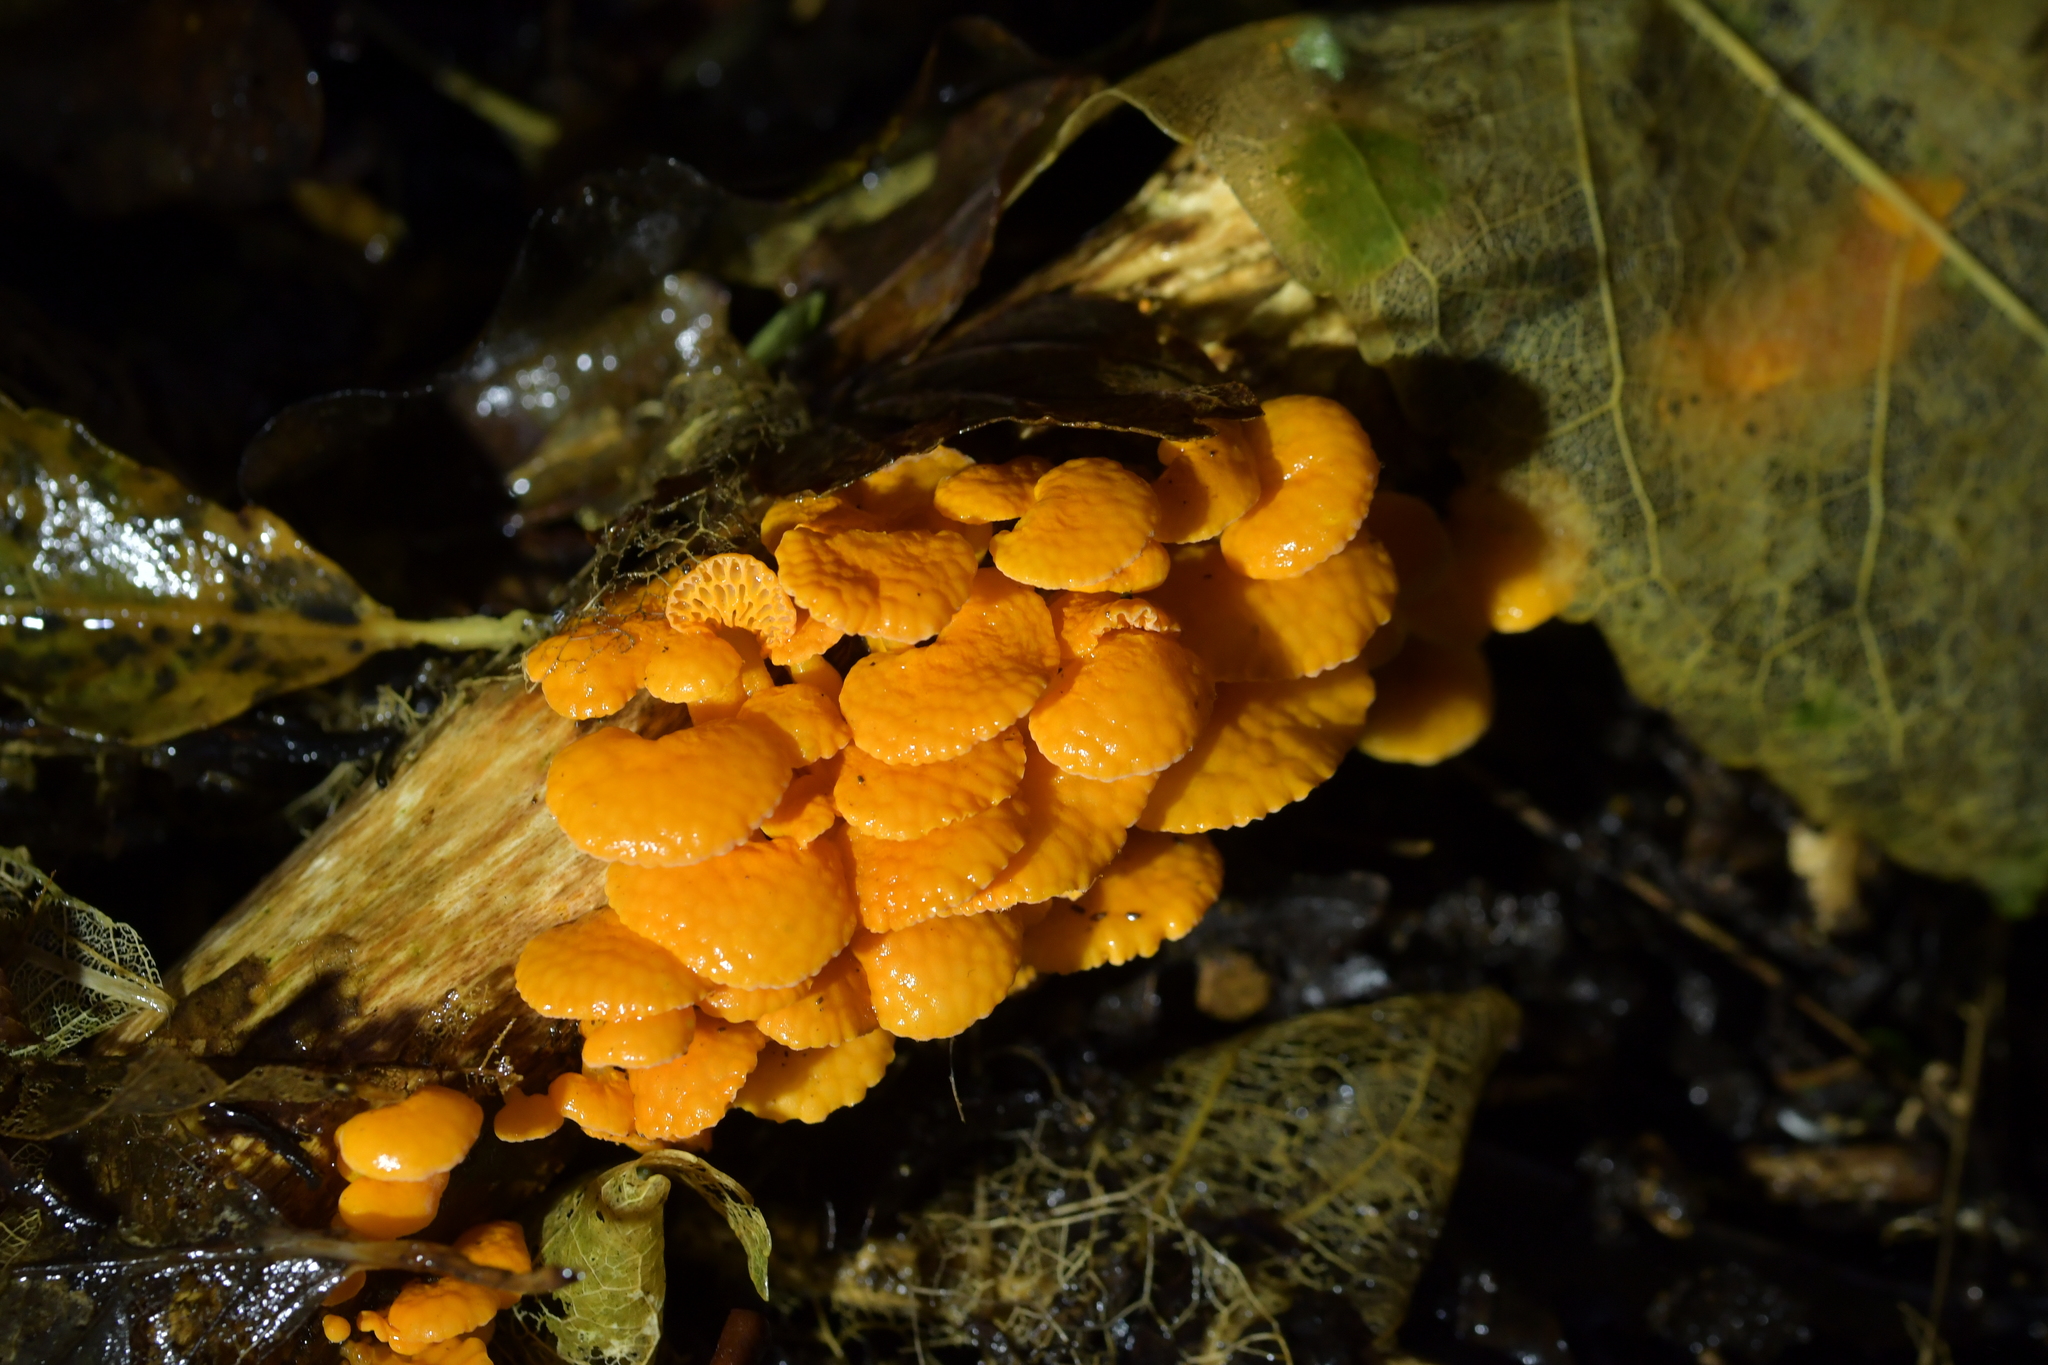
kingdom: Fungi
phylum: Basidiomycota
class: Agaricomycetes
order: Agaricales
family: Mycenaceae
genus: Favolaschia
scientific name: Favolaschia claudopus
